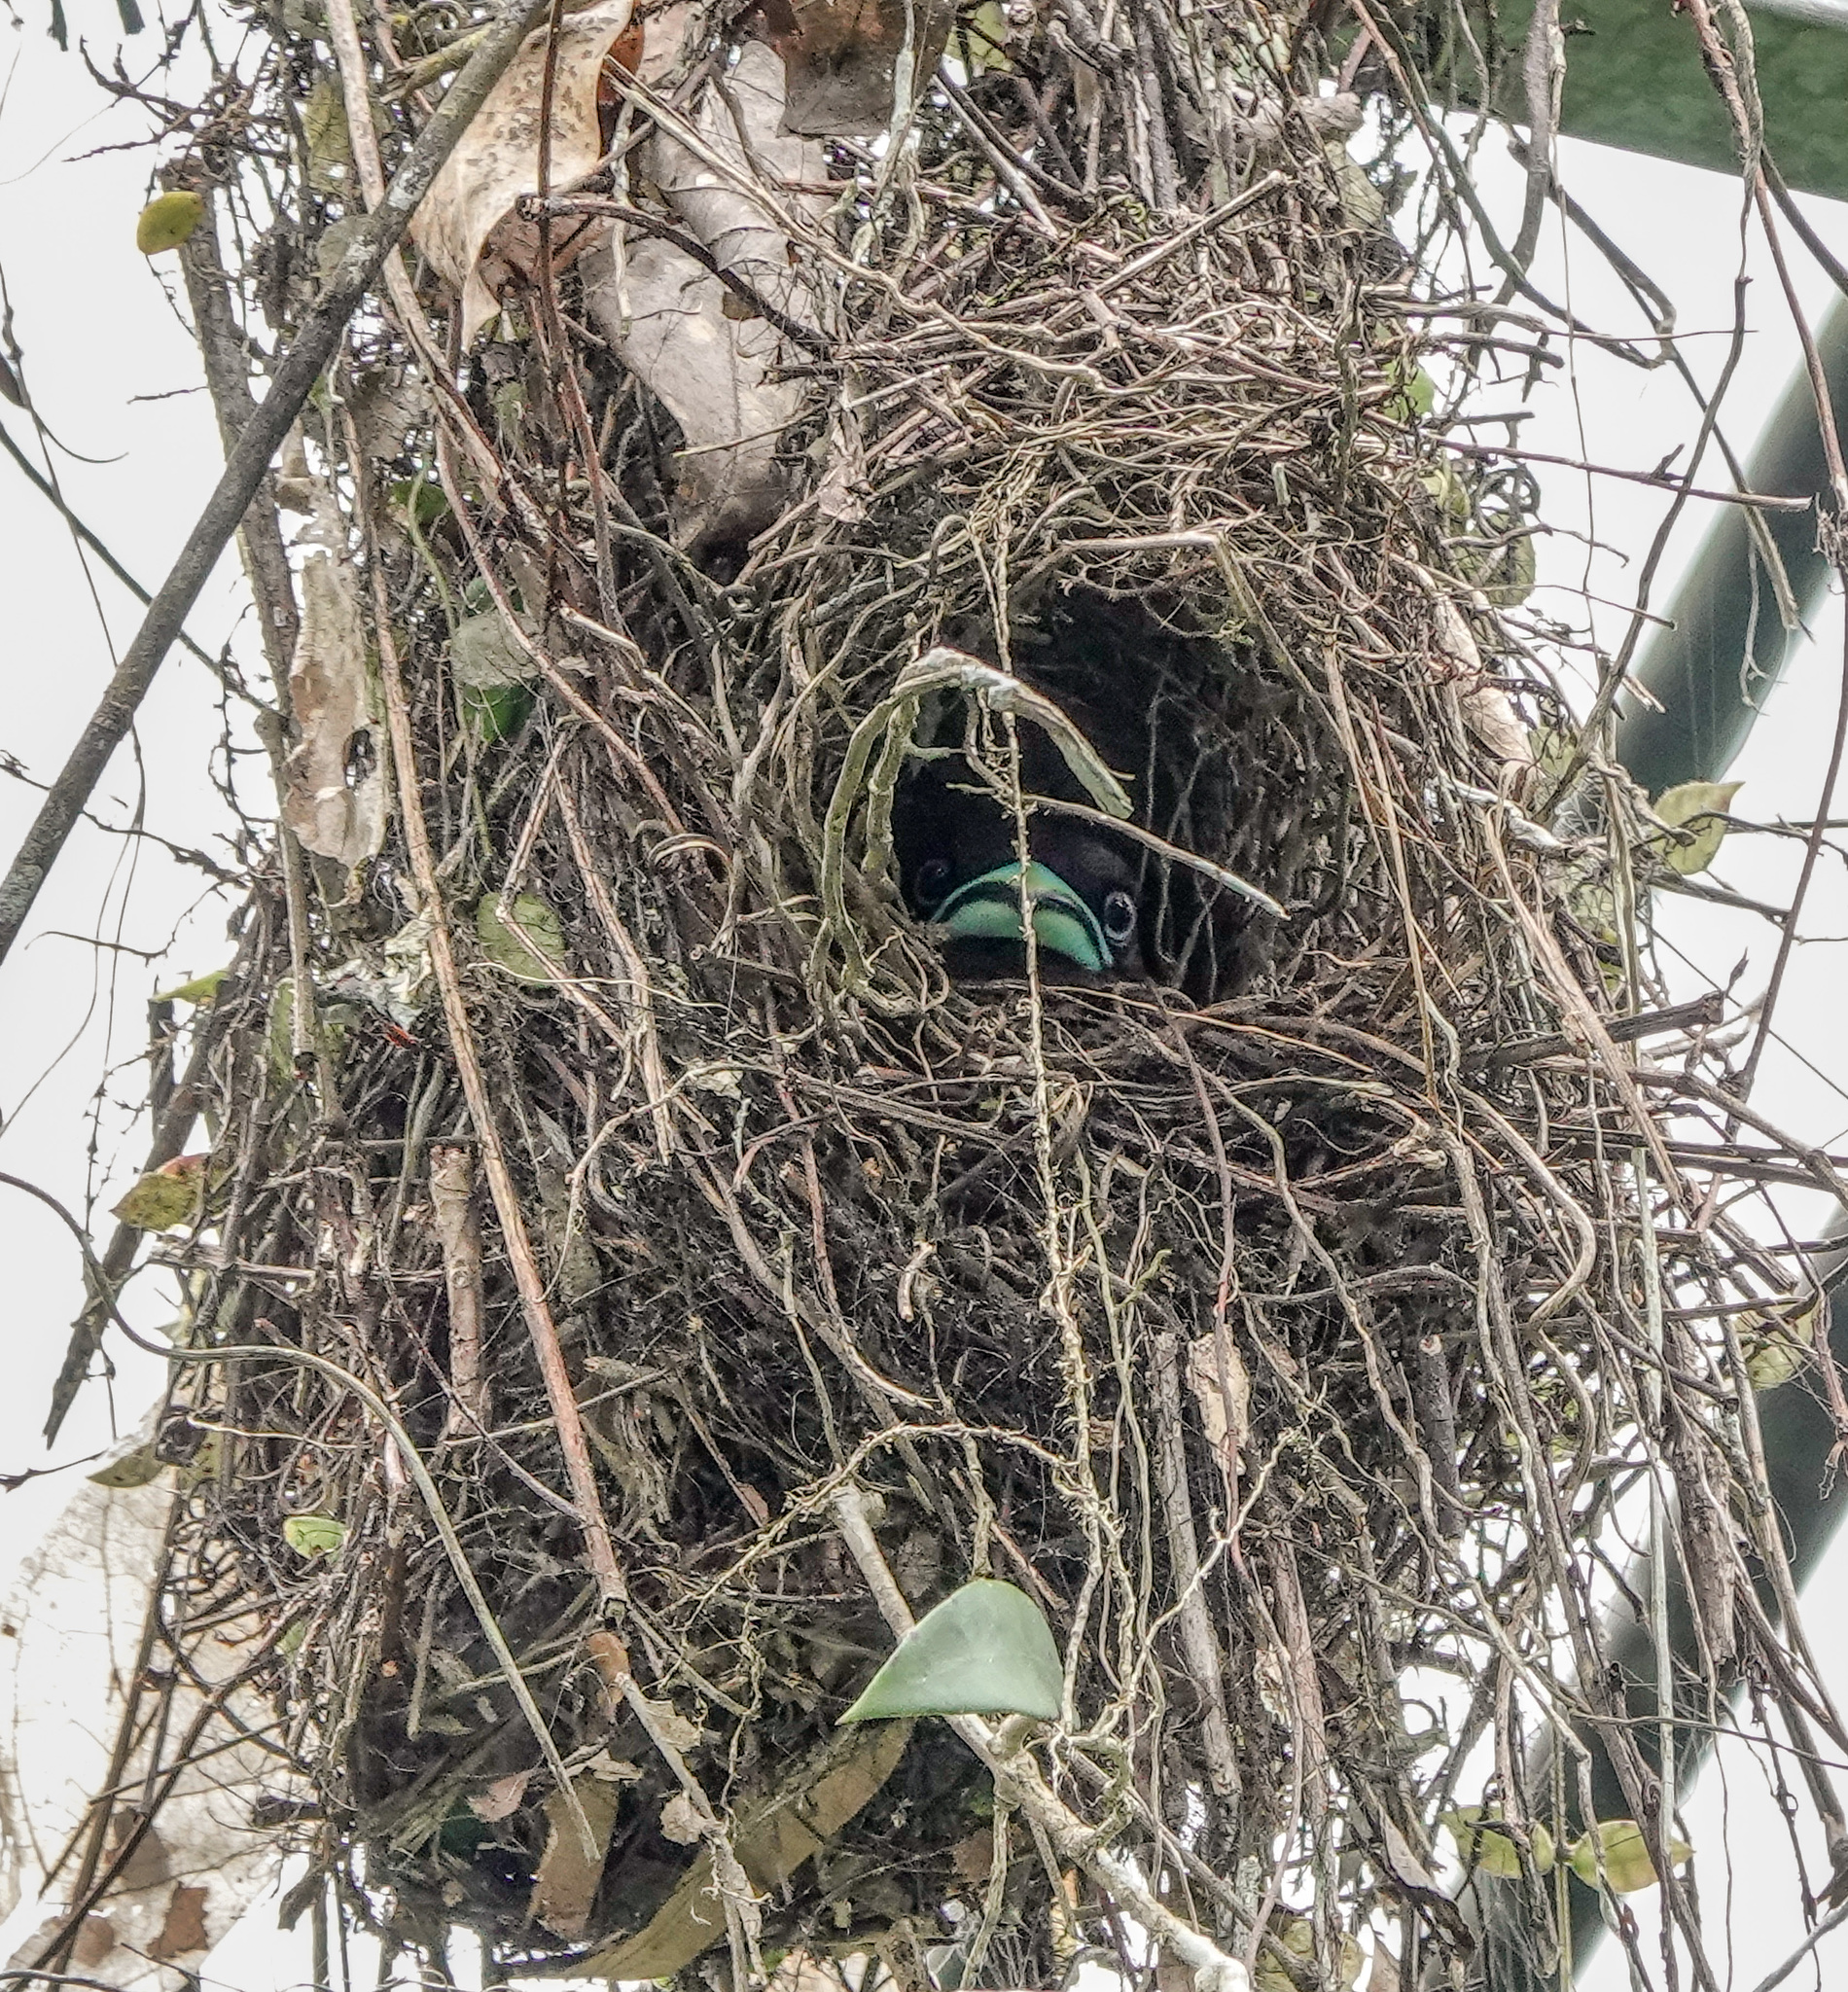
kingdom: Animalia
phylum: Chordata
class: Aves
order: Passeriformes
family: Eurylaimidae
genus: Eurylaimus
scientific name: Eurylaimus javanicus
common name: Banded broadbill
